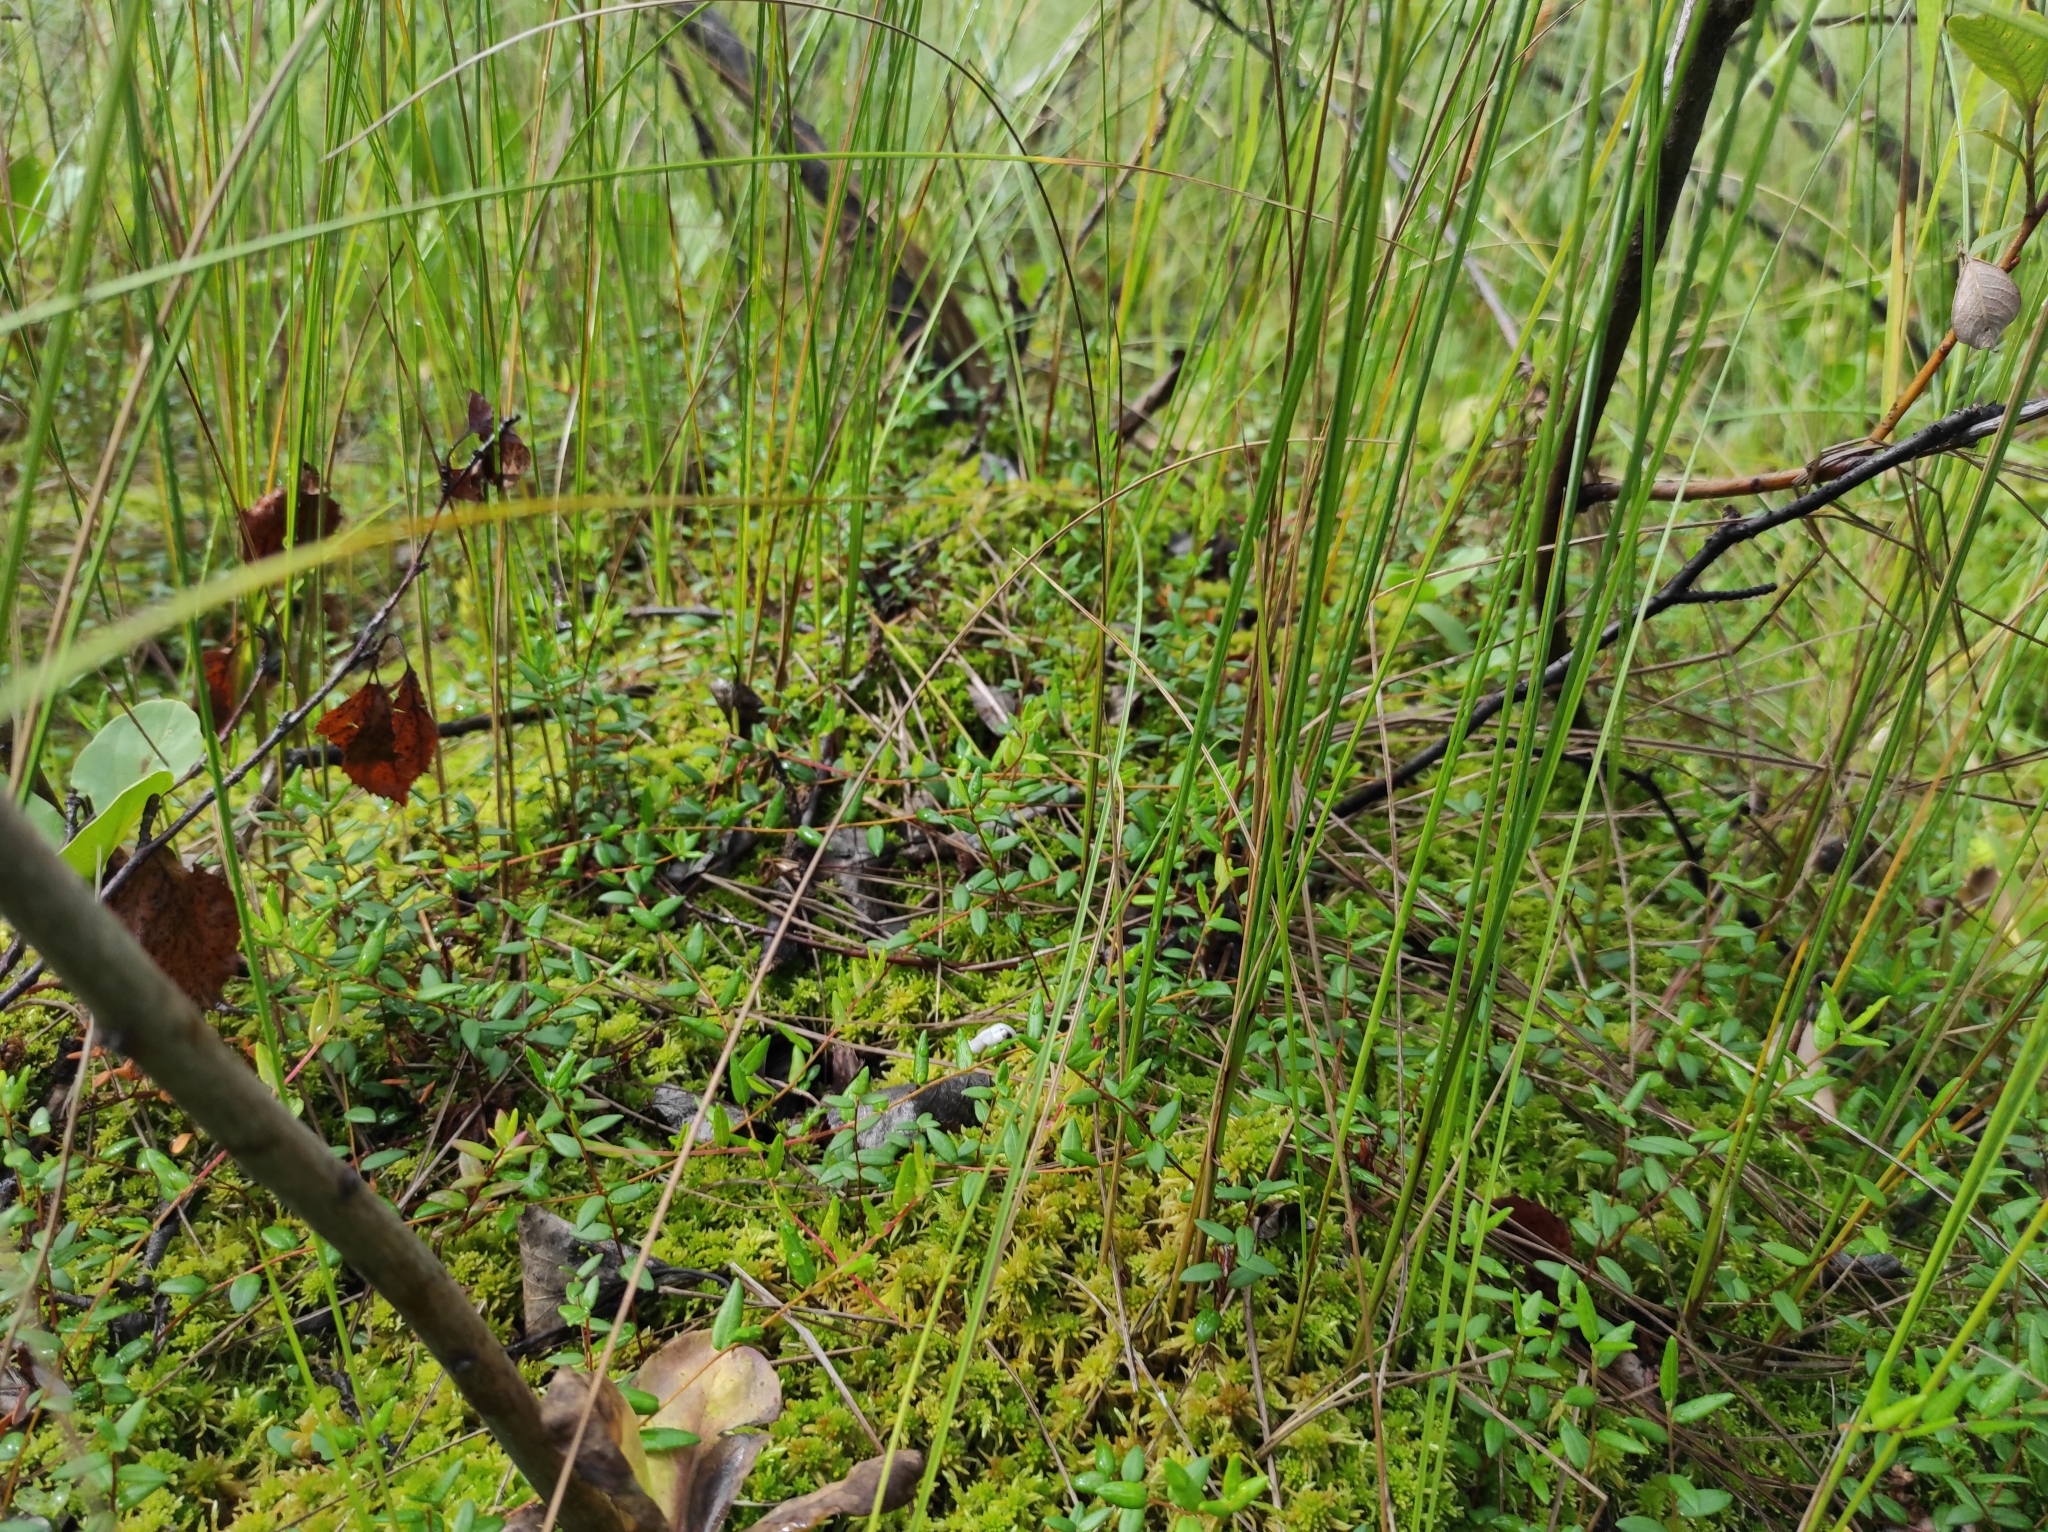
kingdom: Plantae
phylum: Tracheophyta
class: Magnoliopsida
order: Ericales
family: Ericaceae
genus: Vaccinium
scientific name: Vaccinium oxycoccos
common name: Cranberry
